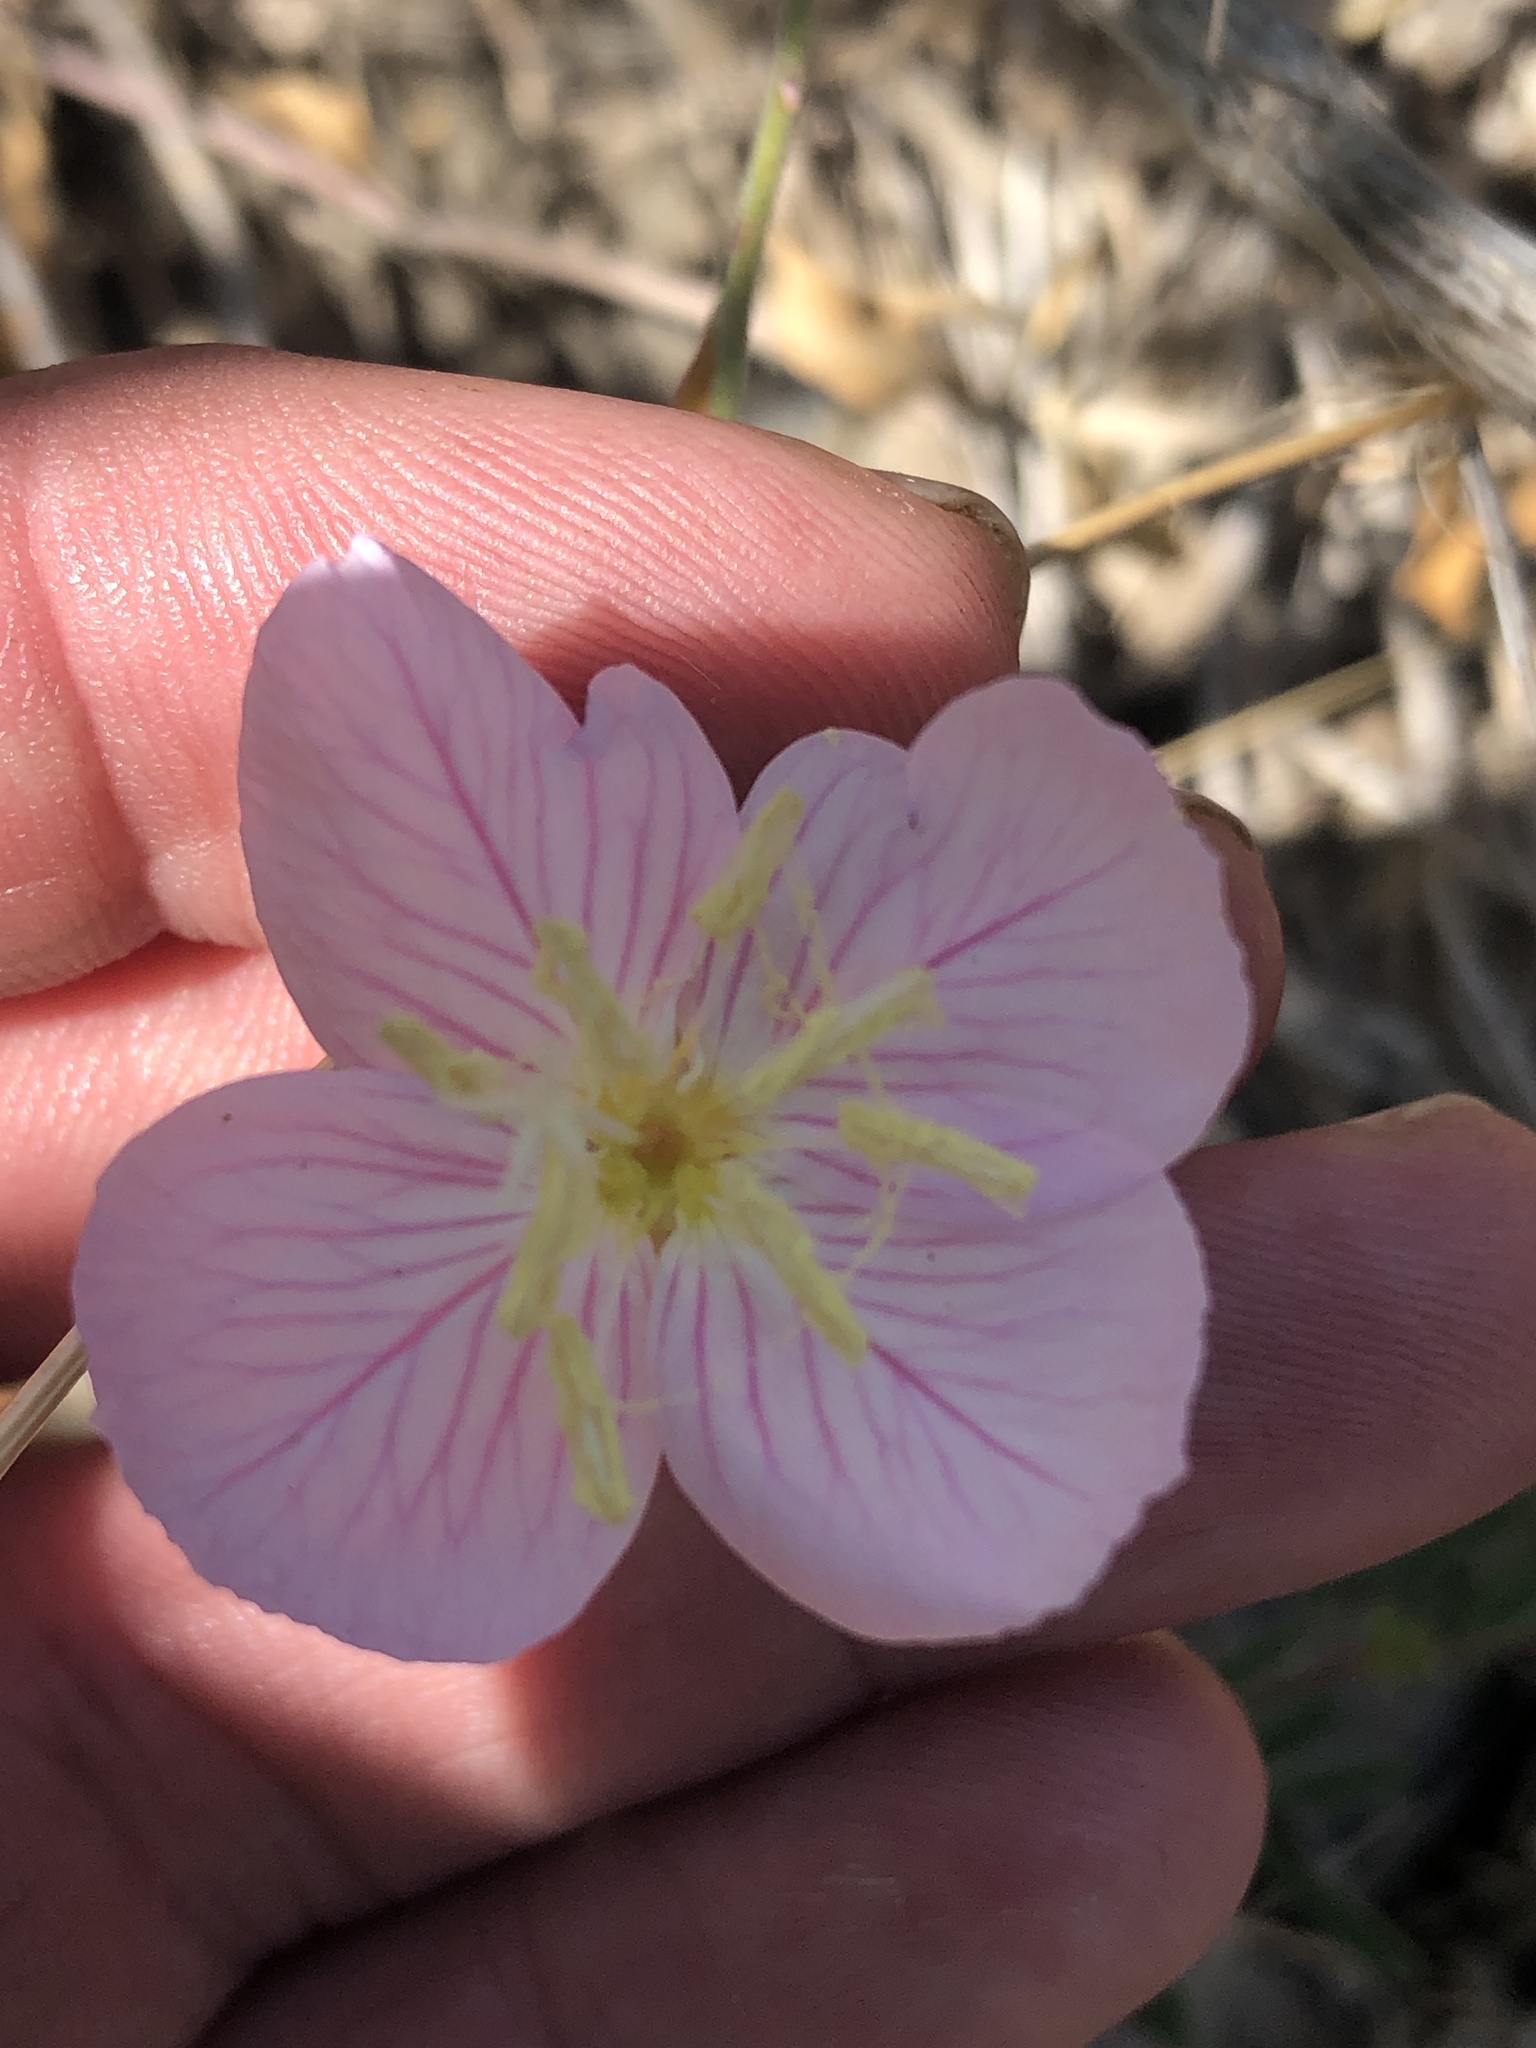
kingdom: Plantae
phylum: Tracheophyta
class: Magnoliopsida
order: Myrtales
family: Onagraceae
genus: Oenothera
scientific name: Oenothera speciosa
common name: White evening-primrose
